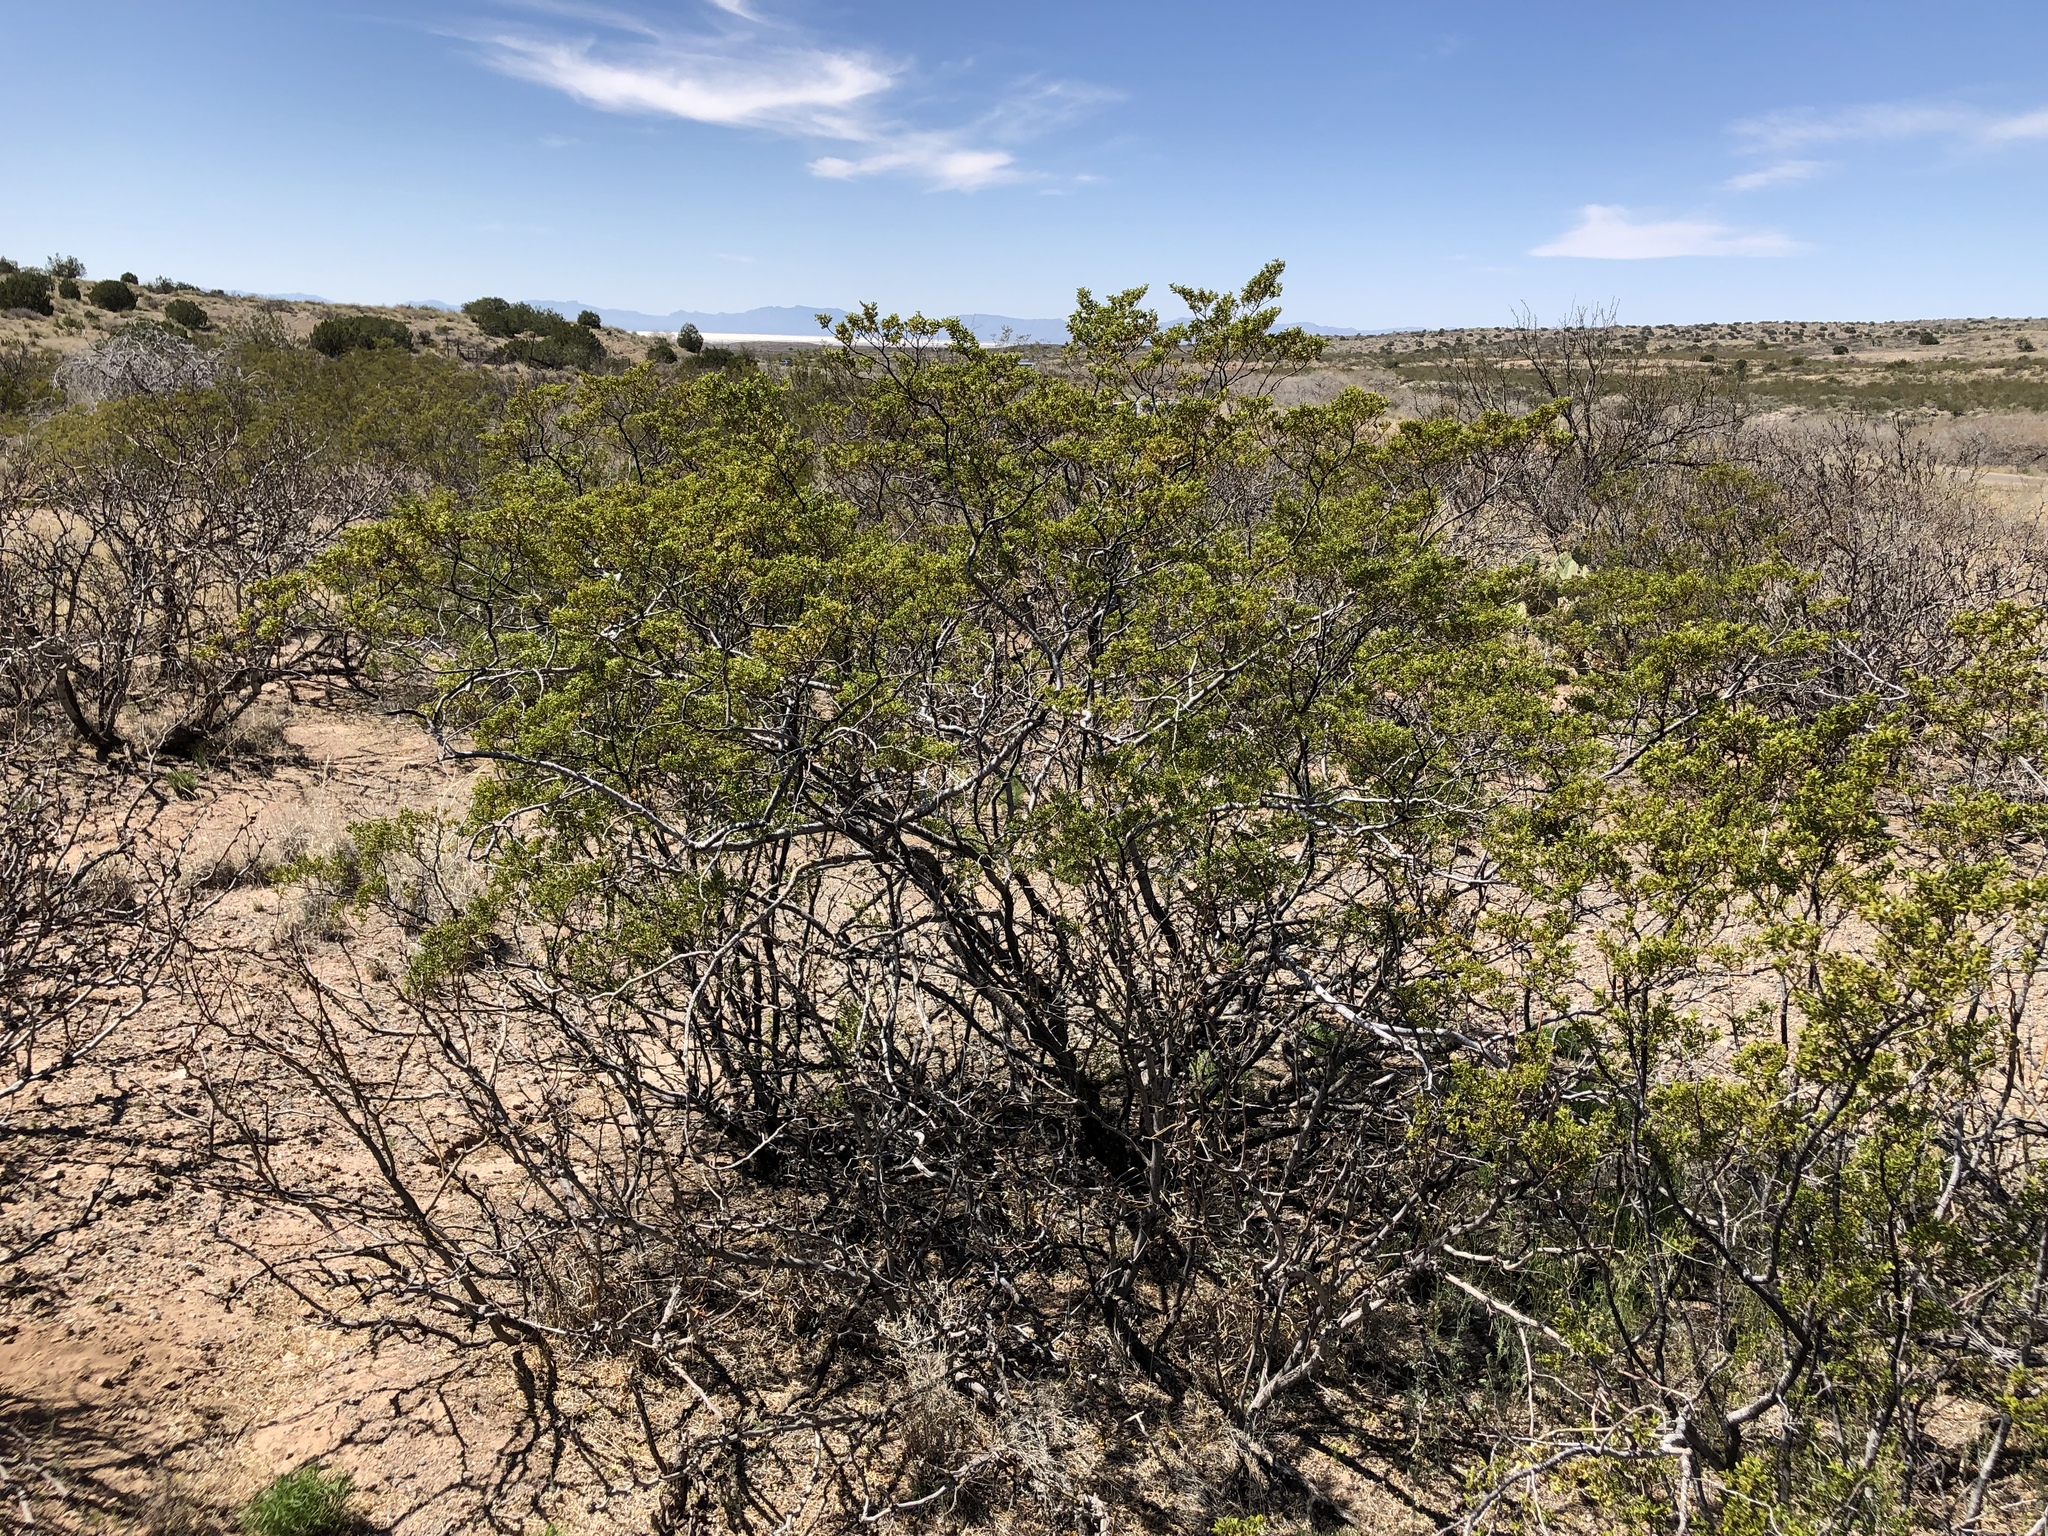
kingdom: Plantae
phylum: Tracheophyta
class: Magnoliopsida
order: Zygophyllales
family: Zygophyllaceae
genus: Larrea
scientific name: Larrea tridentata
